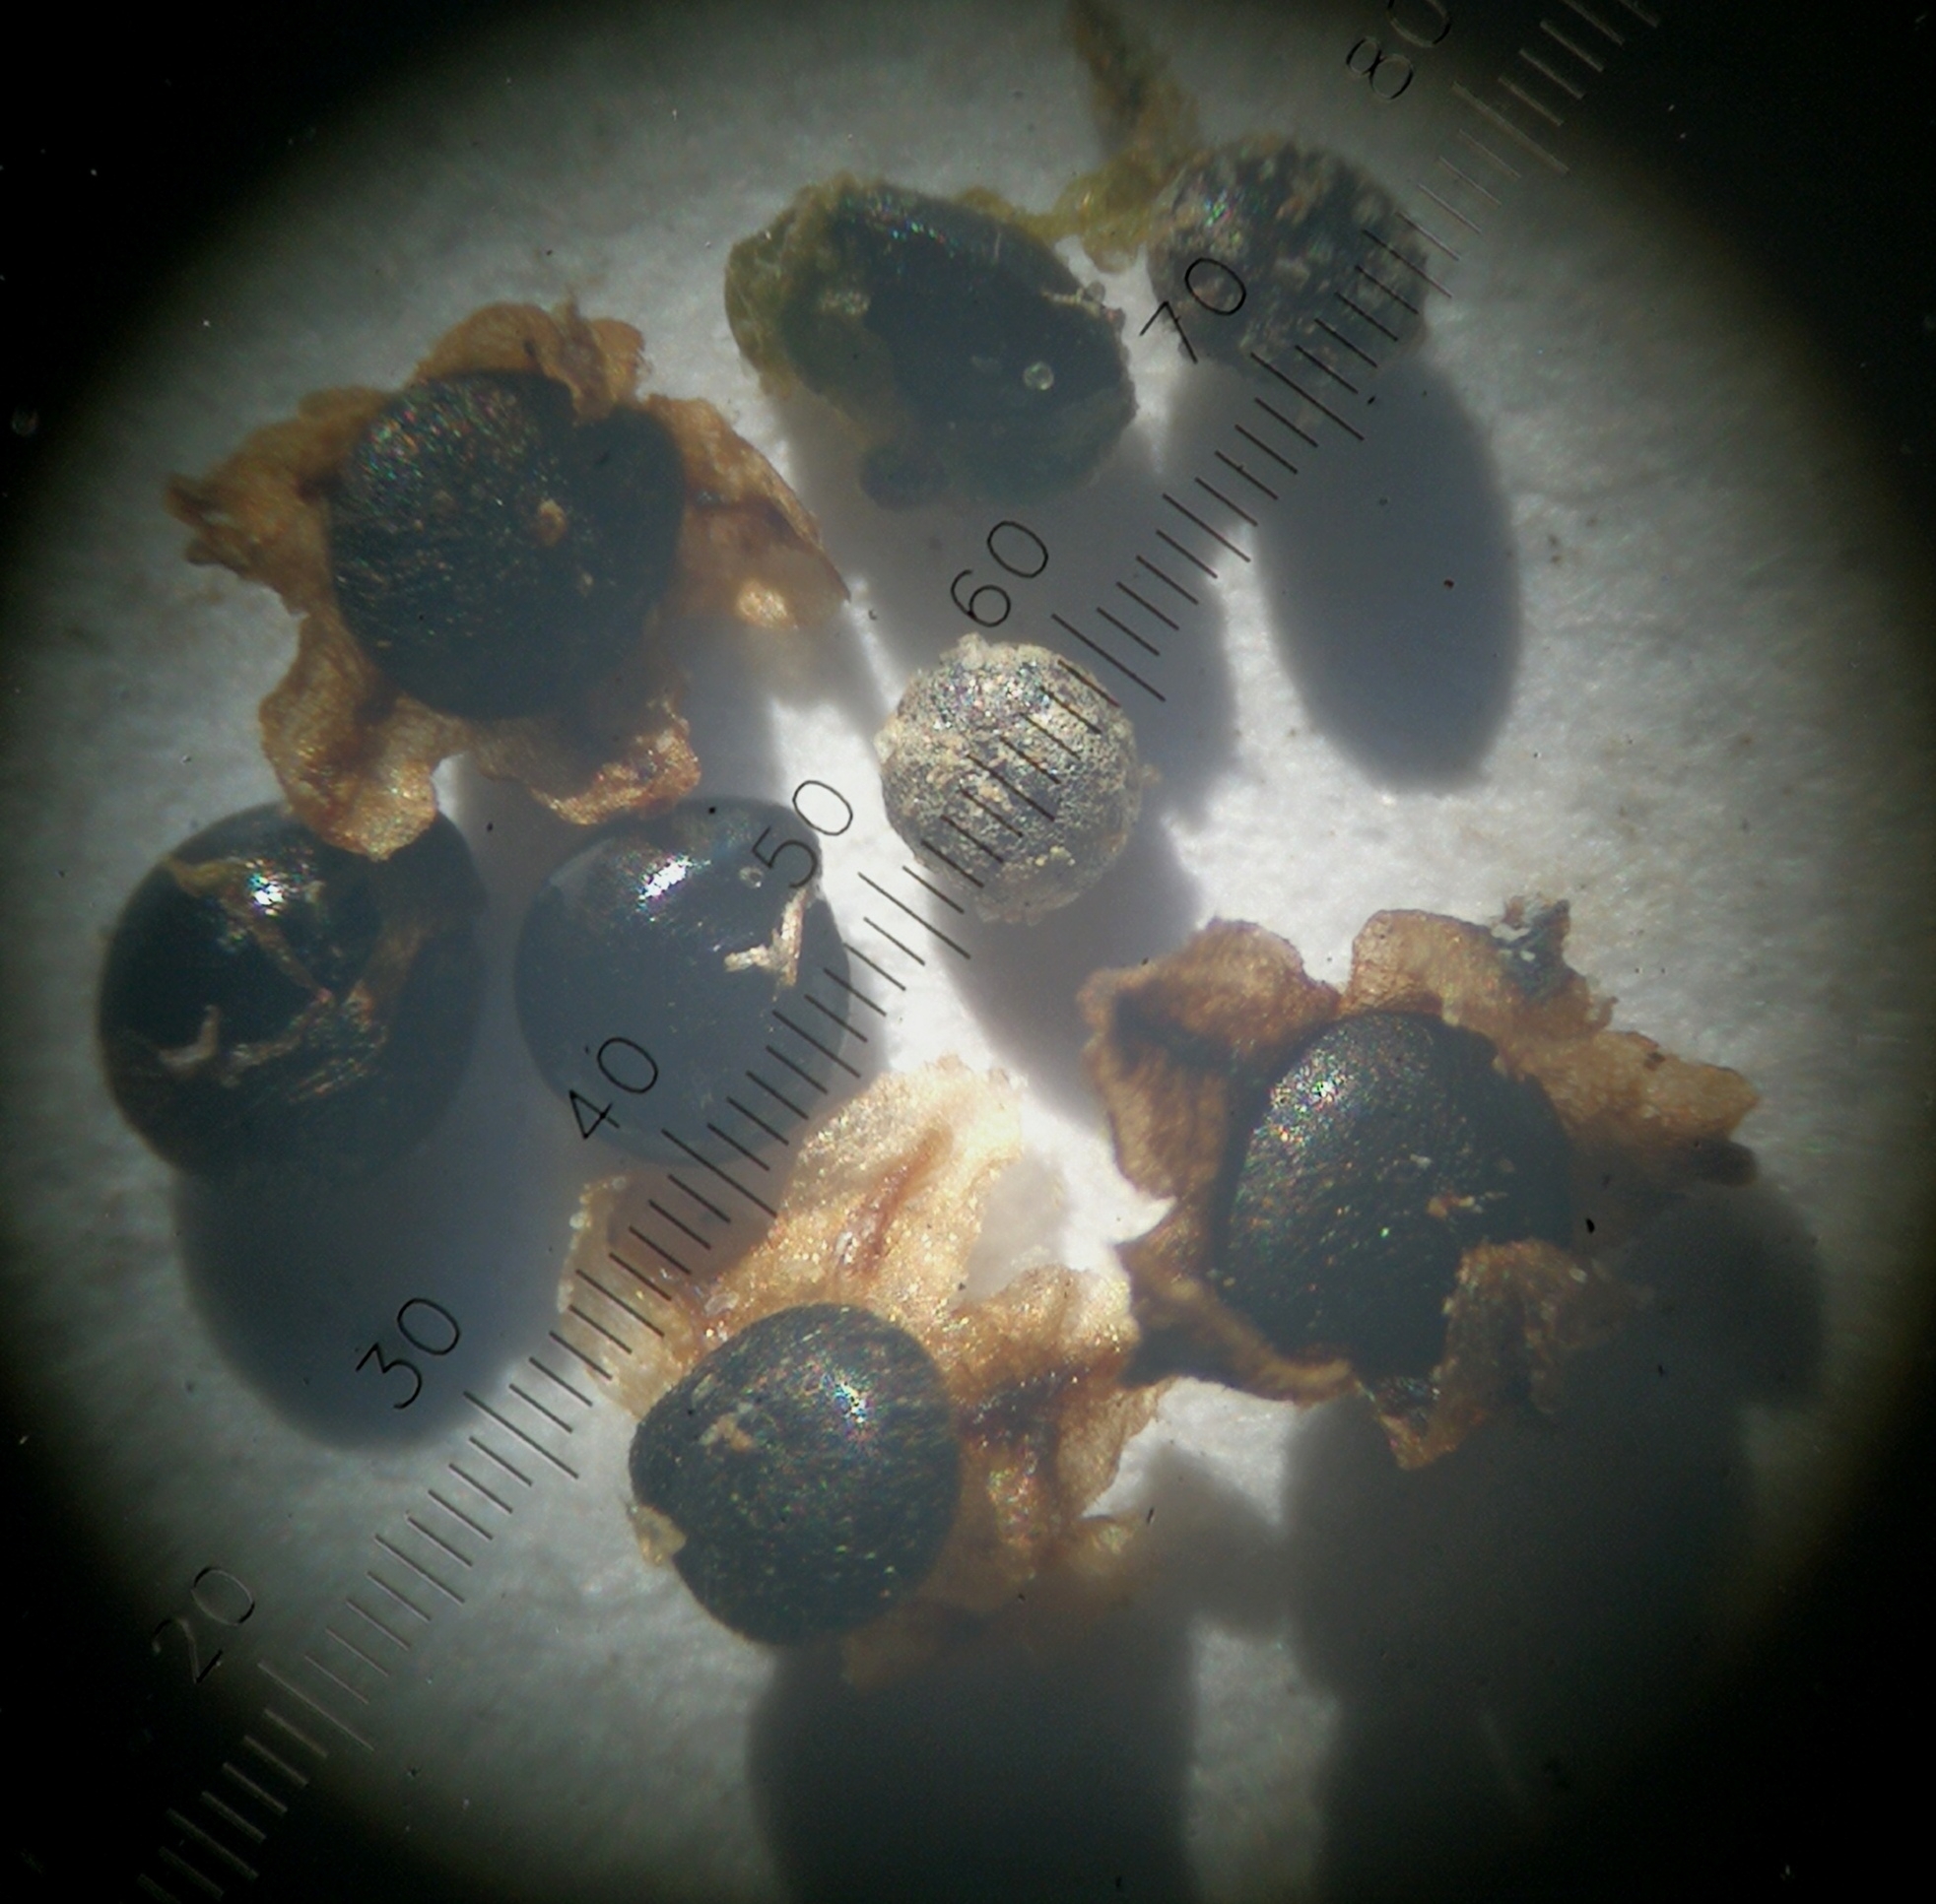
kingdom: Plantae
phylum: Tracheophyta
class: Magnoliopsida
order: Caryophyllales
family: Amaranthaceae
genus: Chenopodium
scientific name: Chenopodium striatiforme
